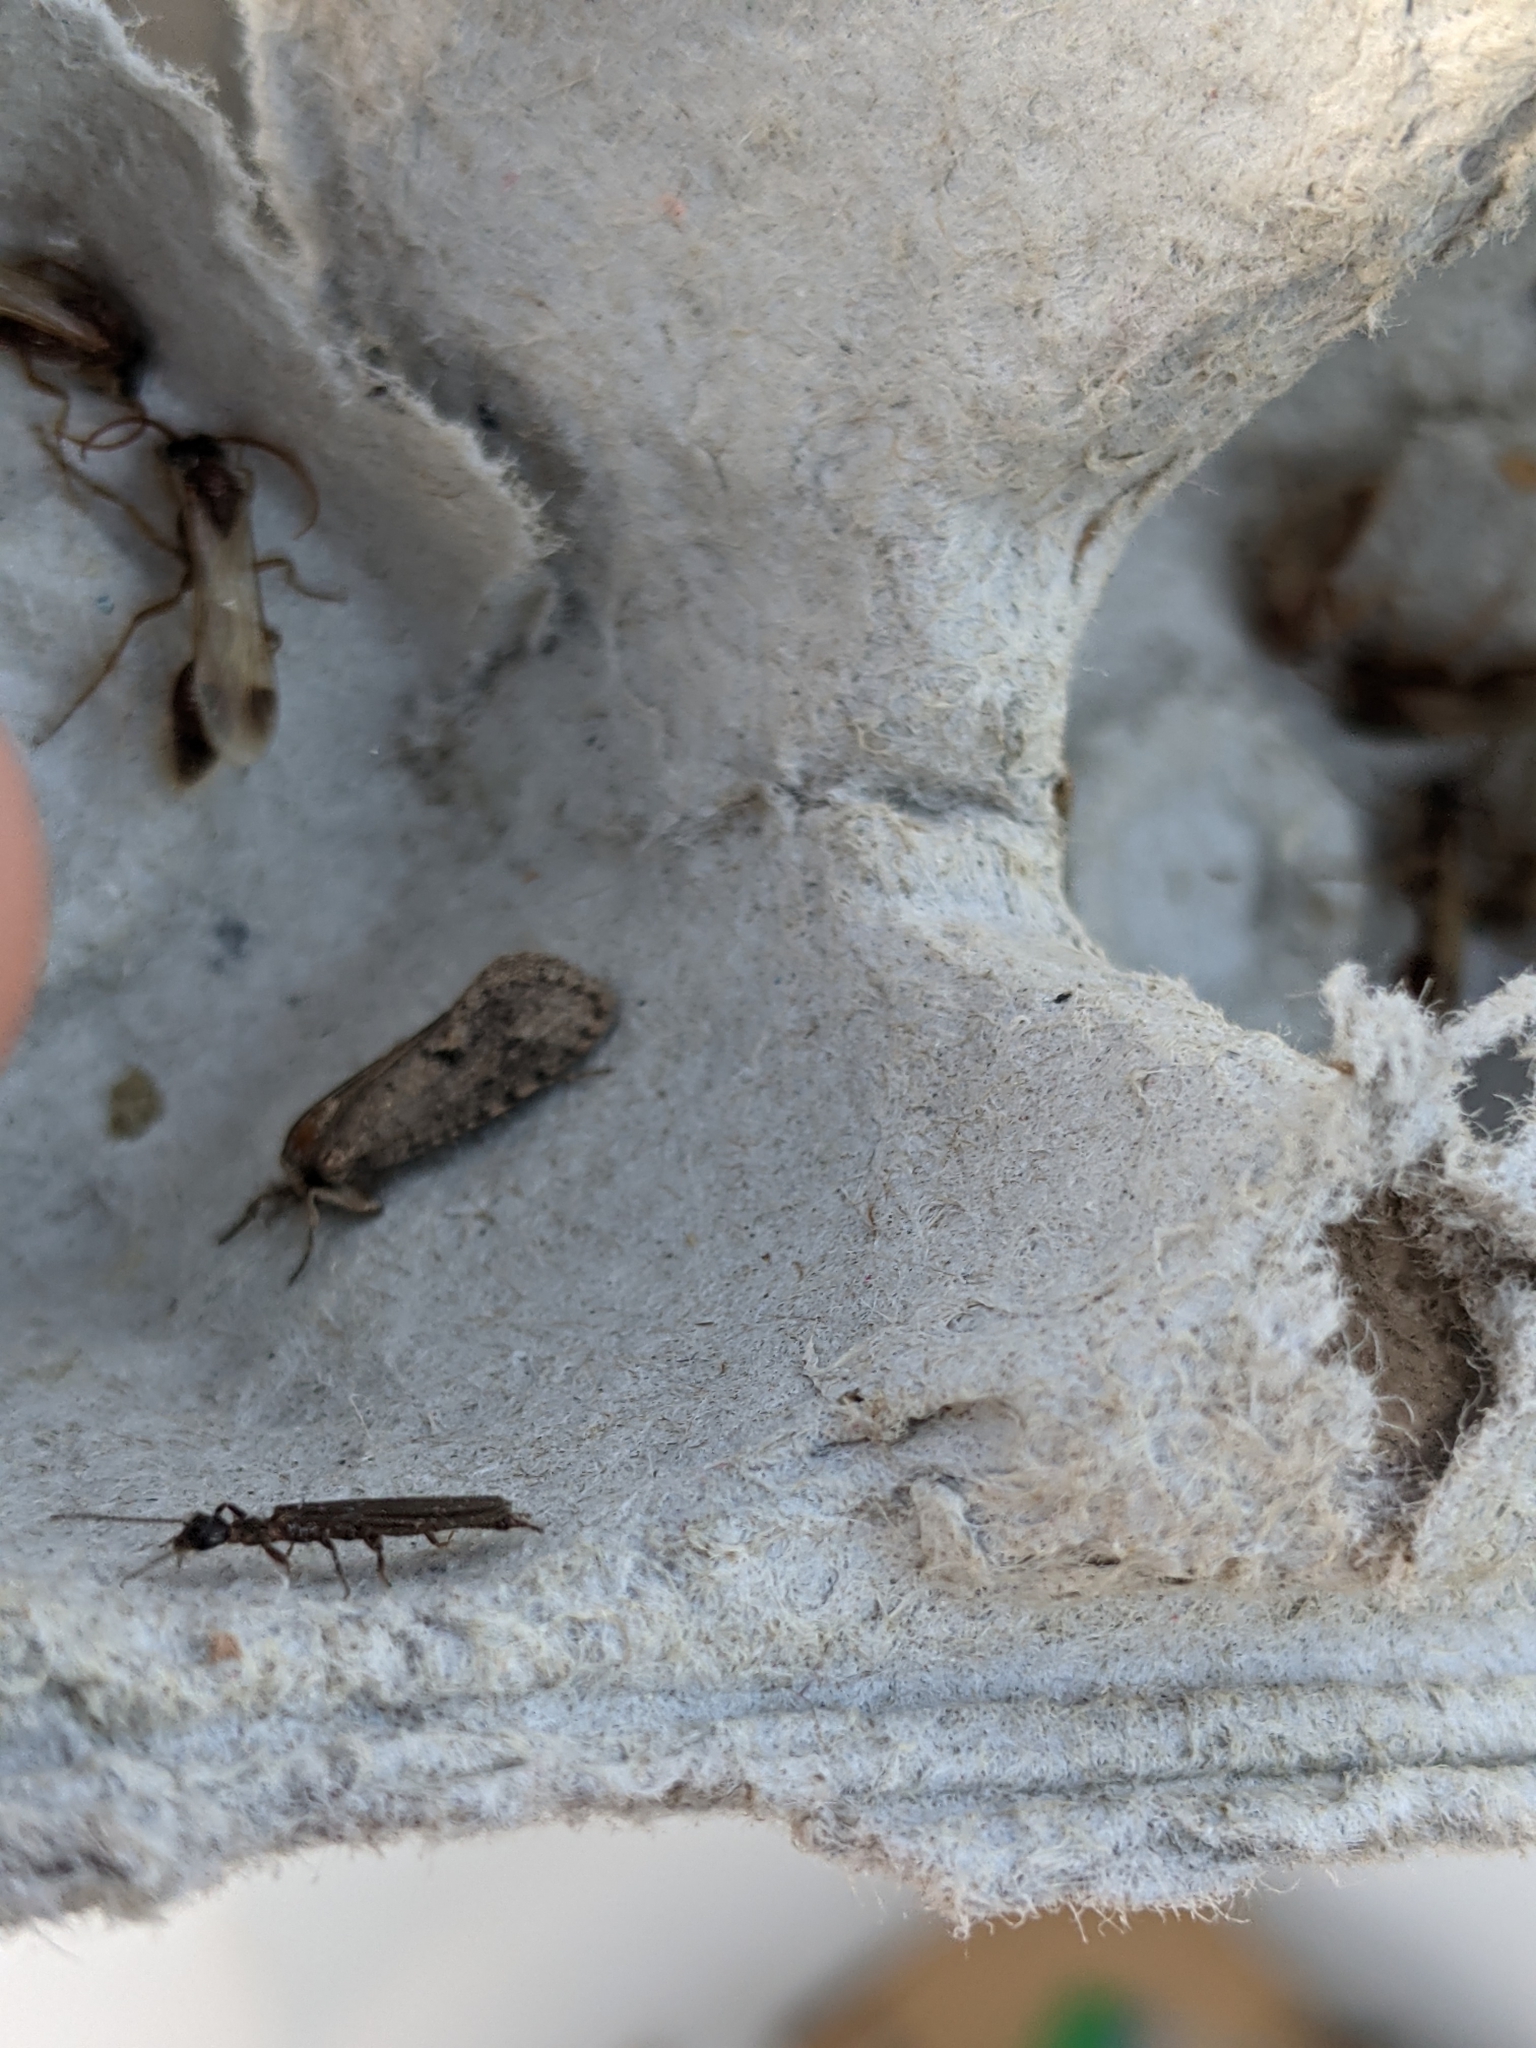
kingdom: Animalia
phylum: Arthropoda
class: Insecta
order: Embioptera
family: Oligotomidae
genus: Oligotoma
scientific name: Oligotoma nigra
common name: Black webspinner
